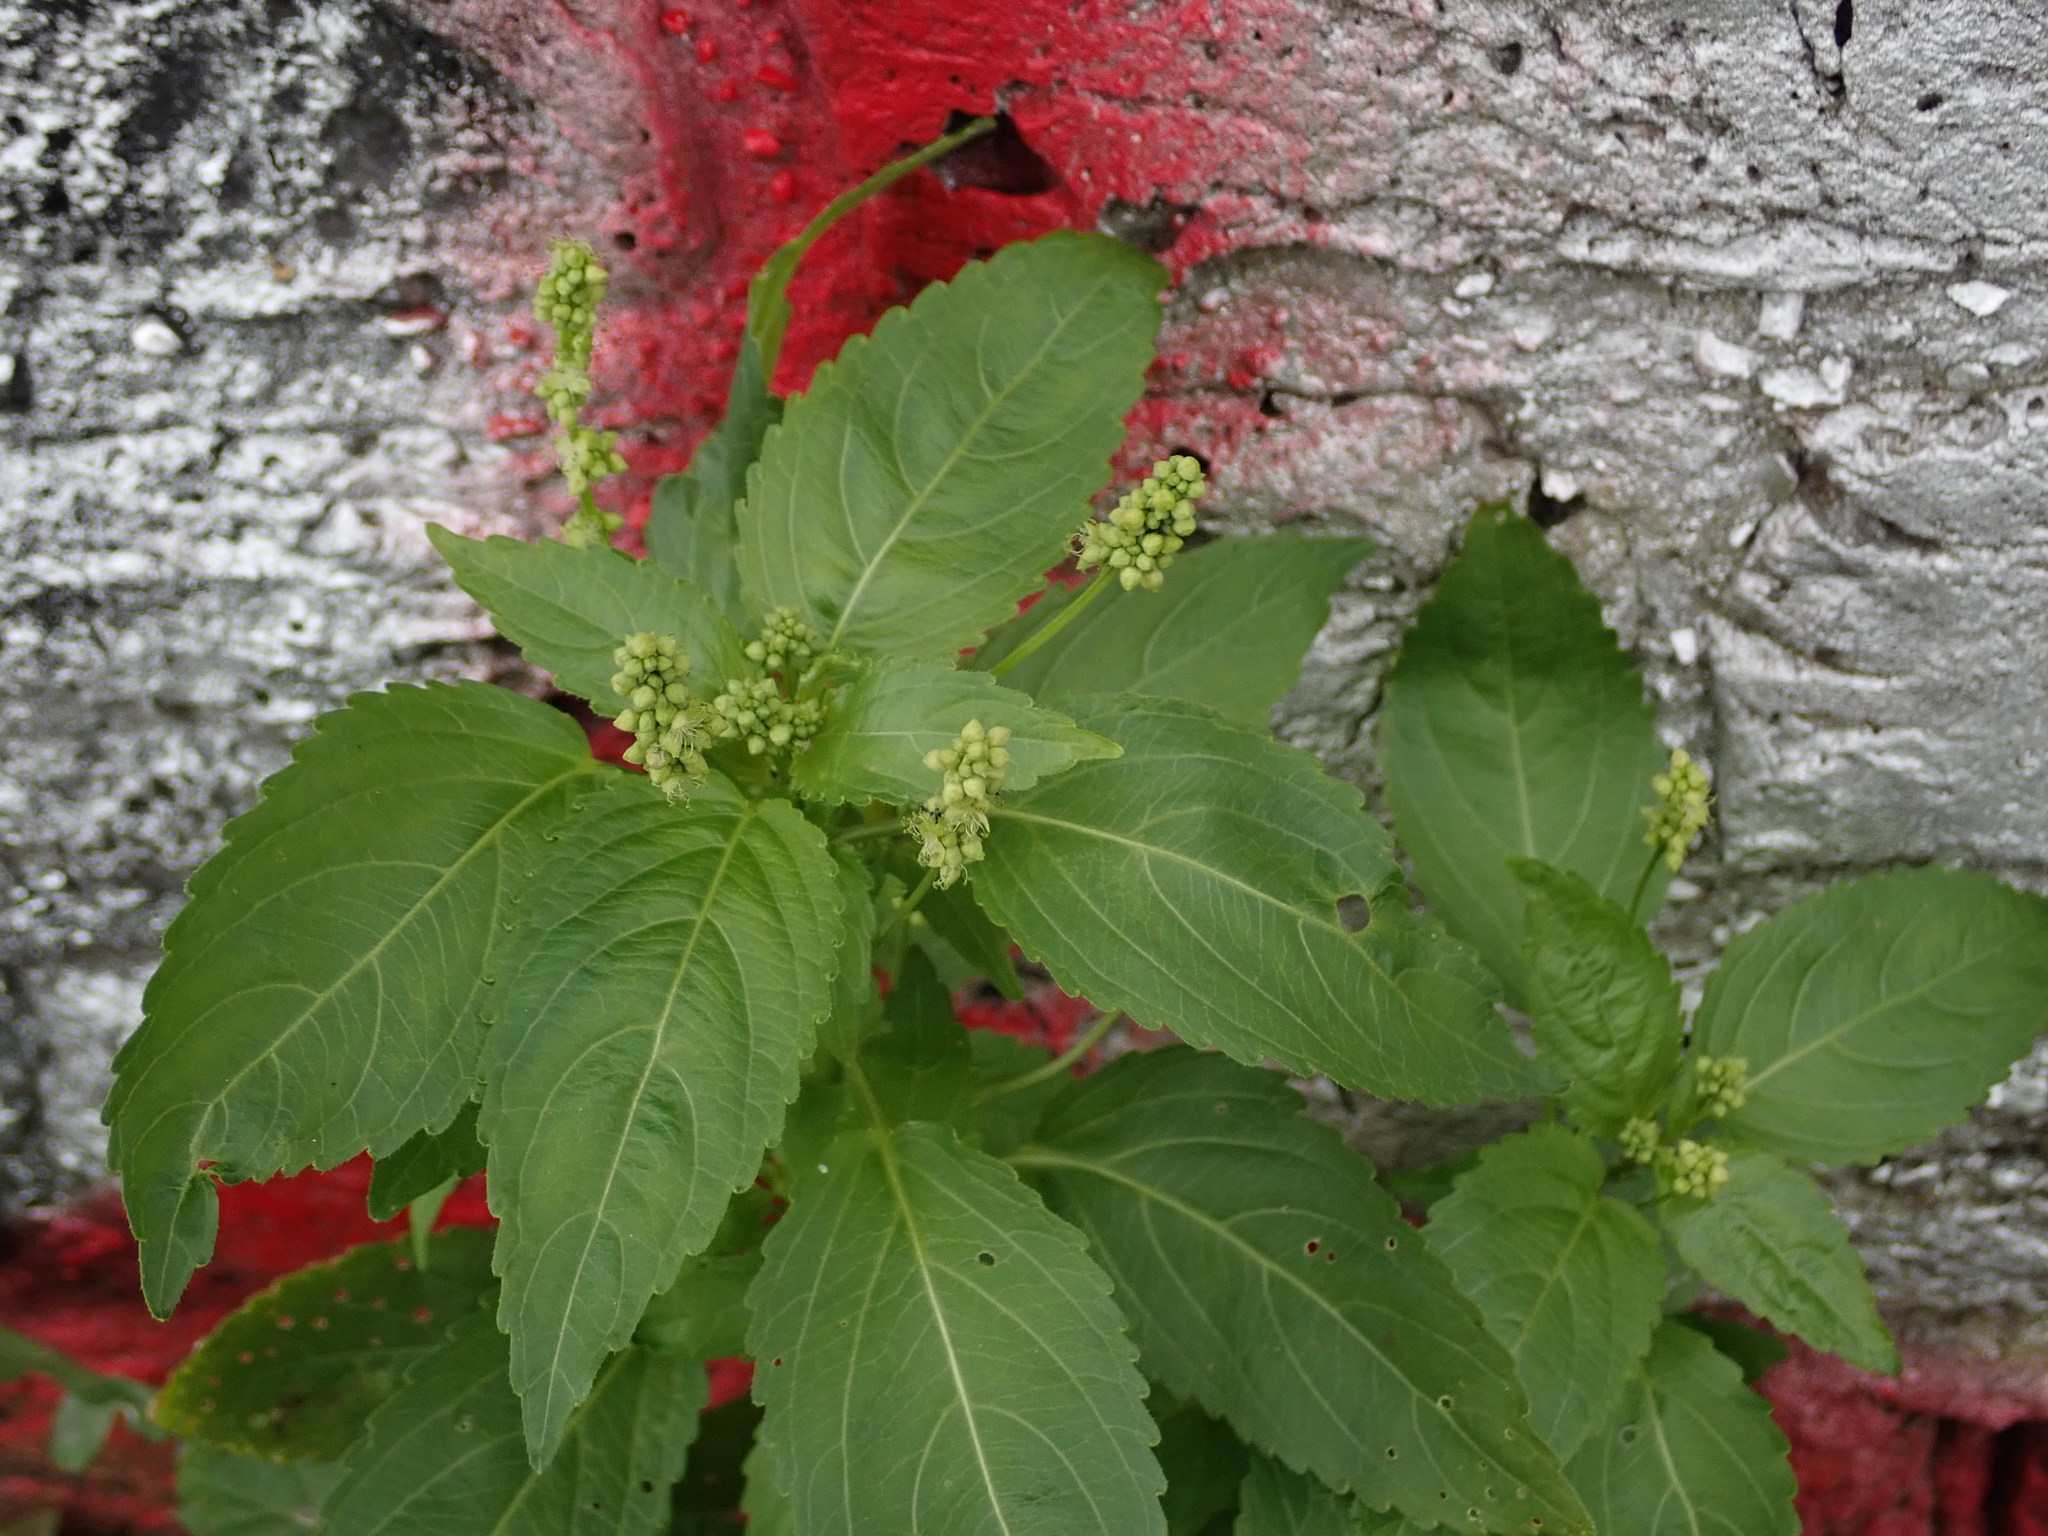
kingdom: Plantae
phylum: Tracheophyta
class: Magnoliopsida
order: Malpighiales
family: Euphorbiaceae
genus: Mercurialis
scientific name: Mercurialis annua
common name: Annual mercury
